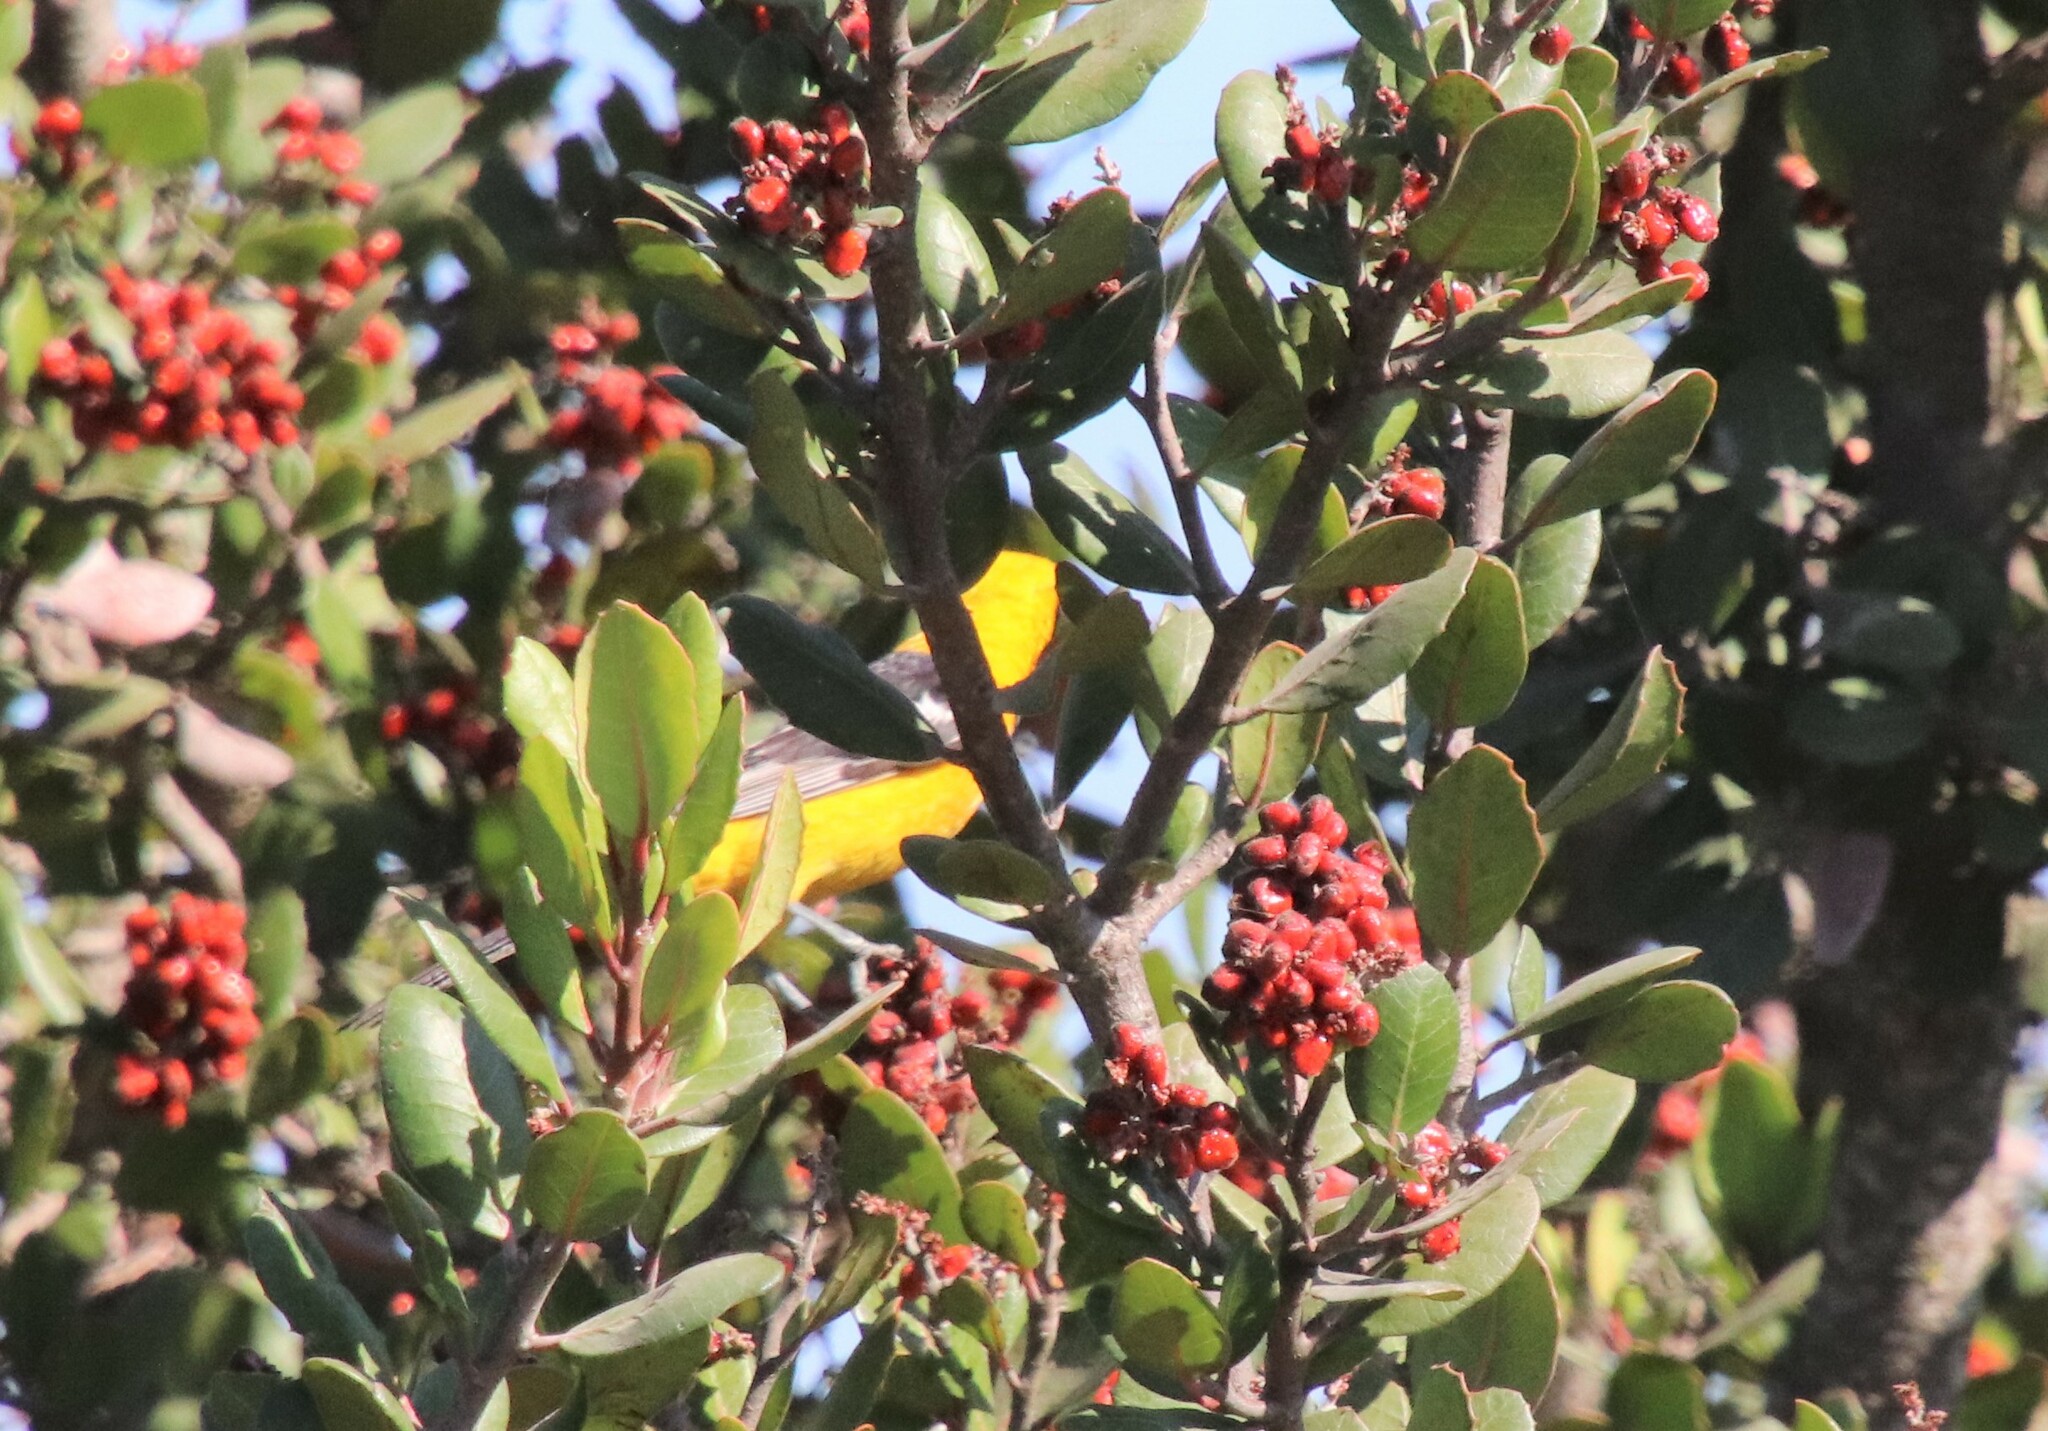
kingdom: Animalia
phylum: Chordata
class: Aves
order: Passeriformes
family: Icteridae
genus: Icterus
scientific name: Icterus cucullatus
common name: Hooded oriole
